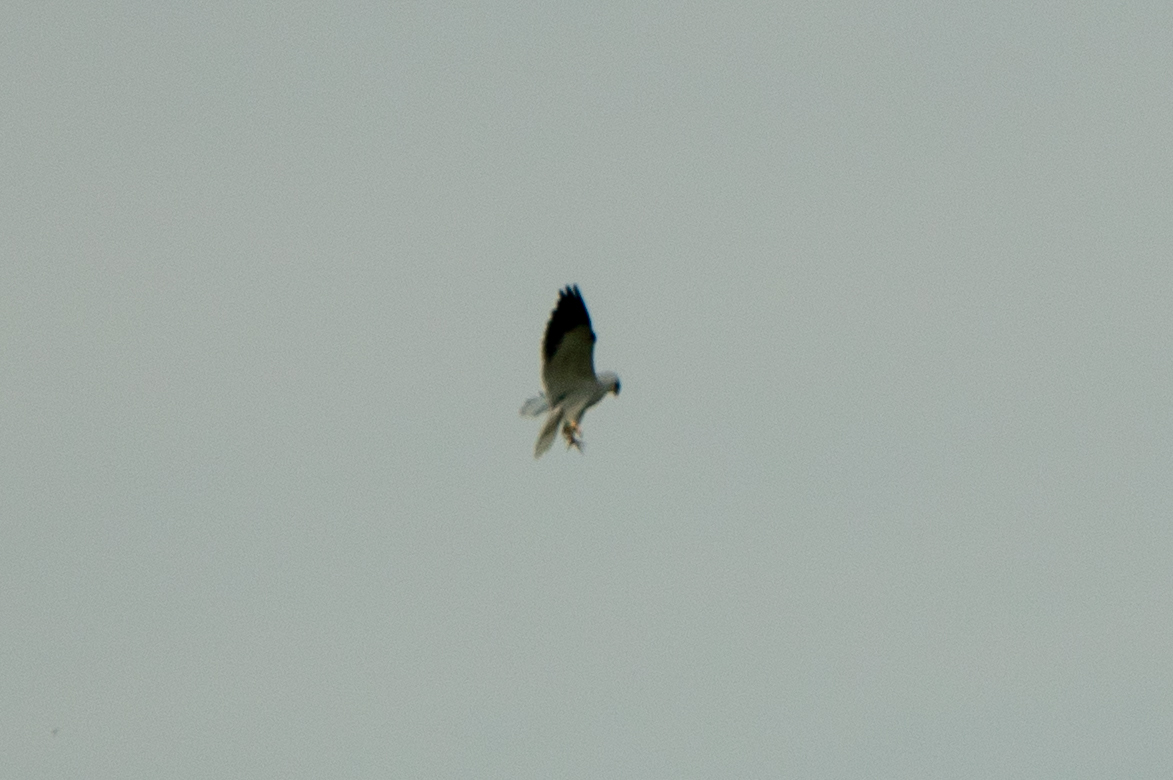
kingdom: Animalia
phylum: Chordata
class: Aves
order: Accipitriformes
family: Accipitridae
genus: Elanus
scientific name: Elanus caeruleus
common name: Black-winged kite
